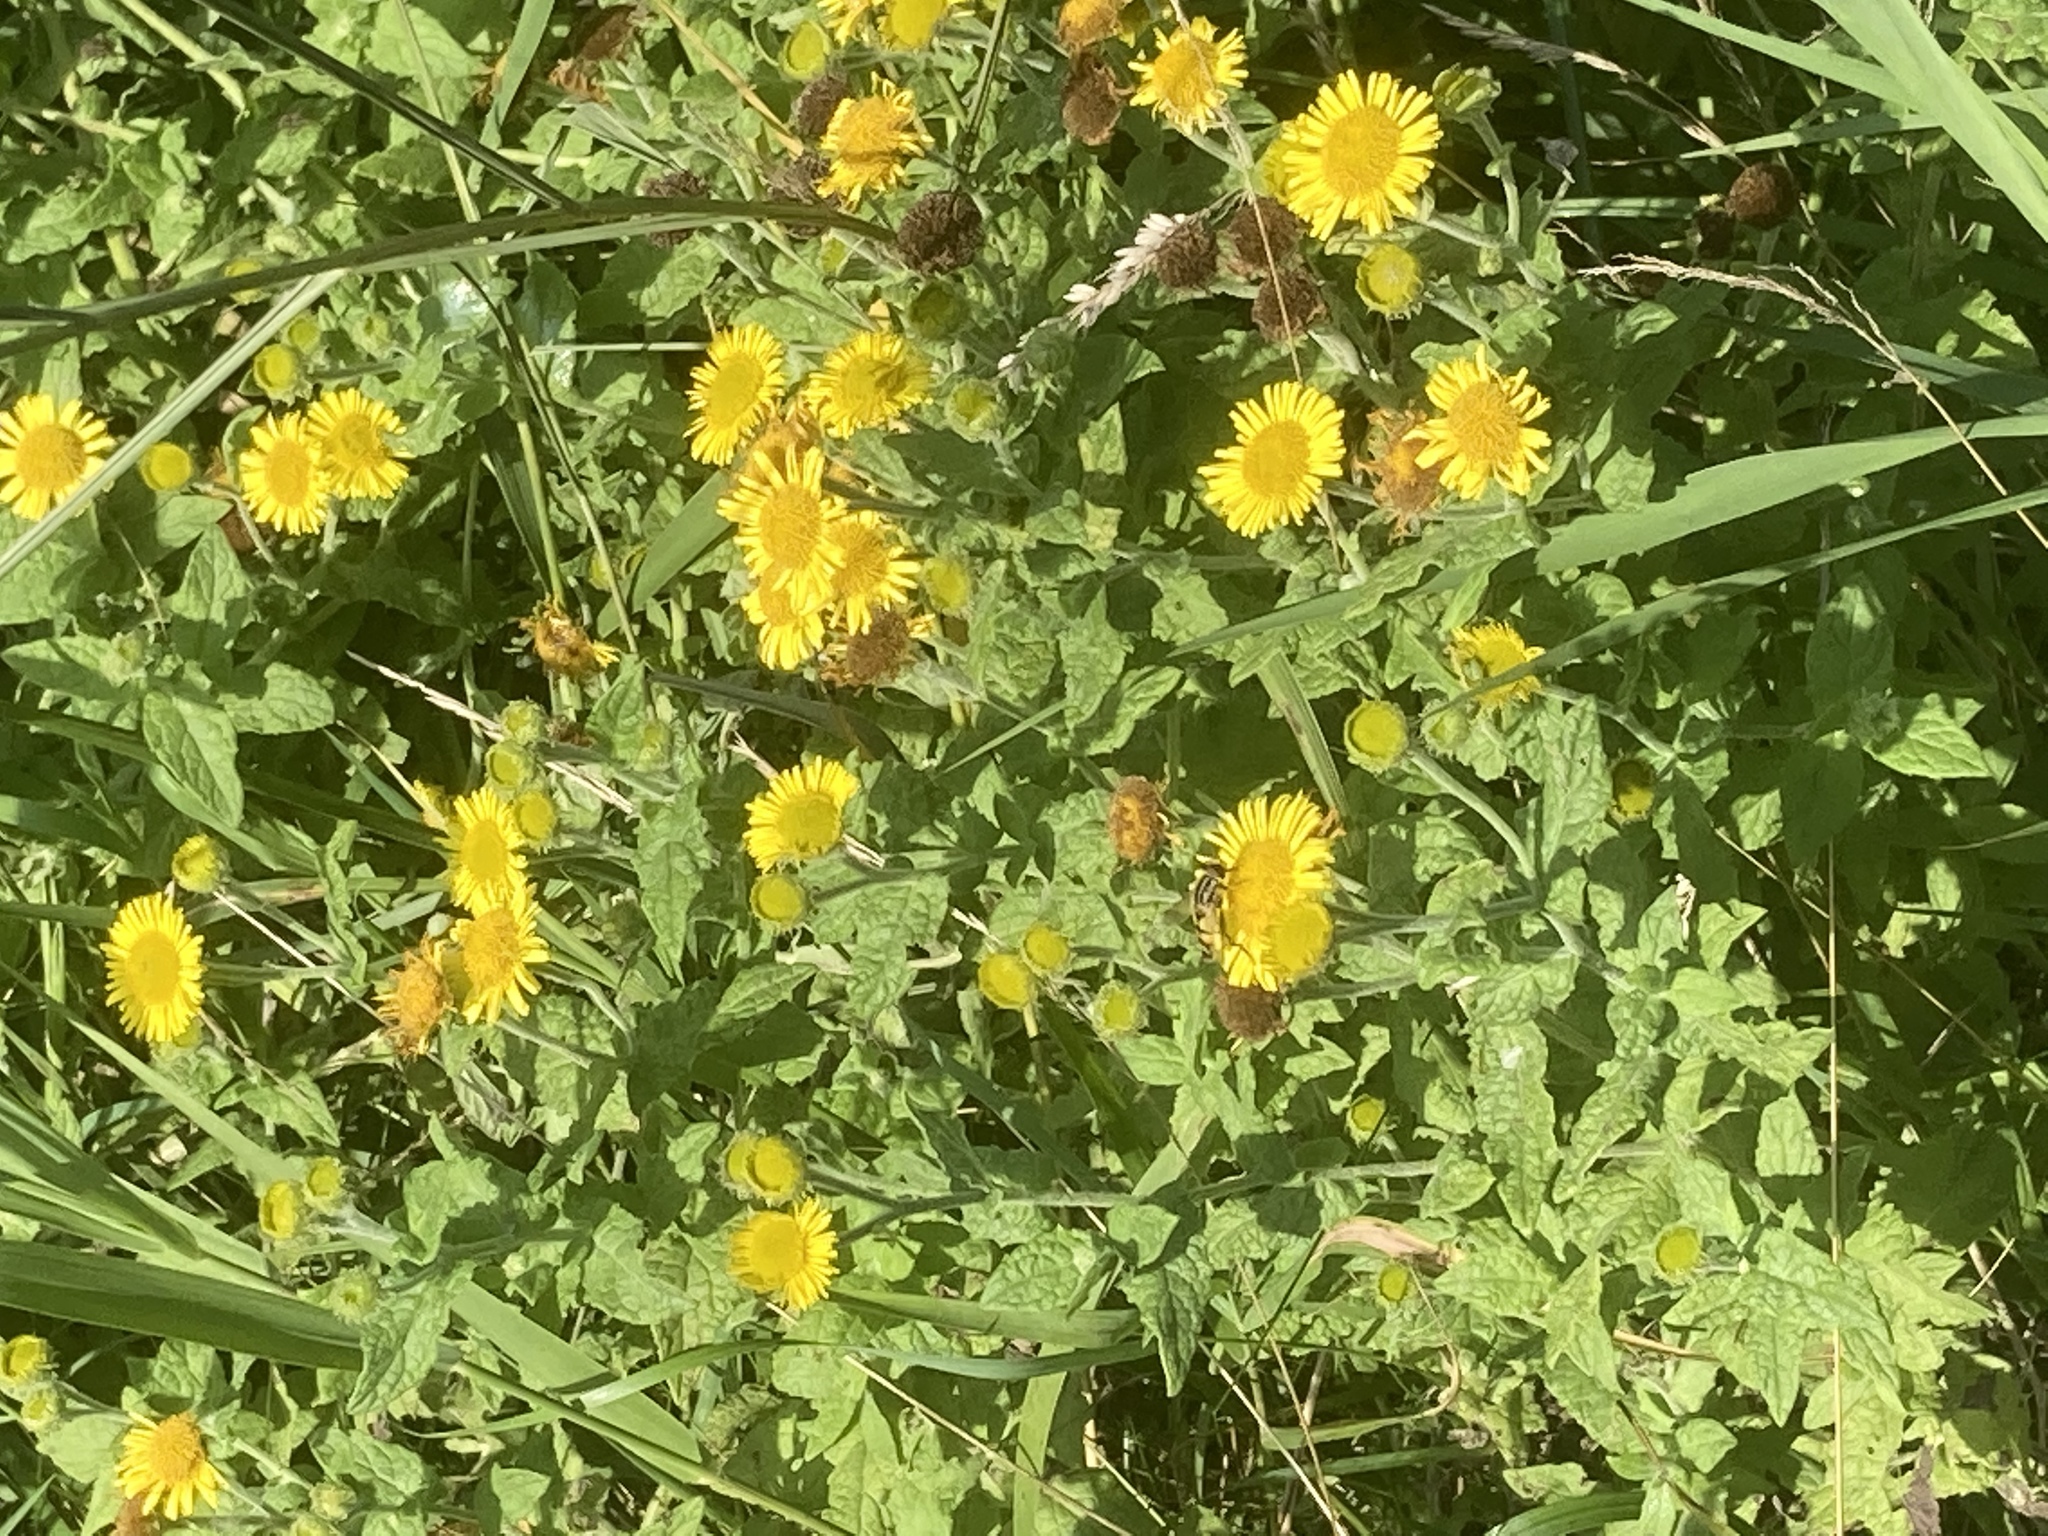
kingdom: Plantae
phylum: Tracheophyta
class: Magnoliopsida
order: Asterales
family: Asteraceae
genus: Pulicaria
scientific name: Pulicaria dysenterica
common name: Common fleabane
